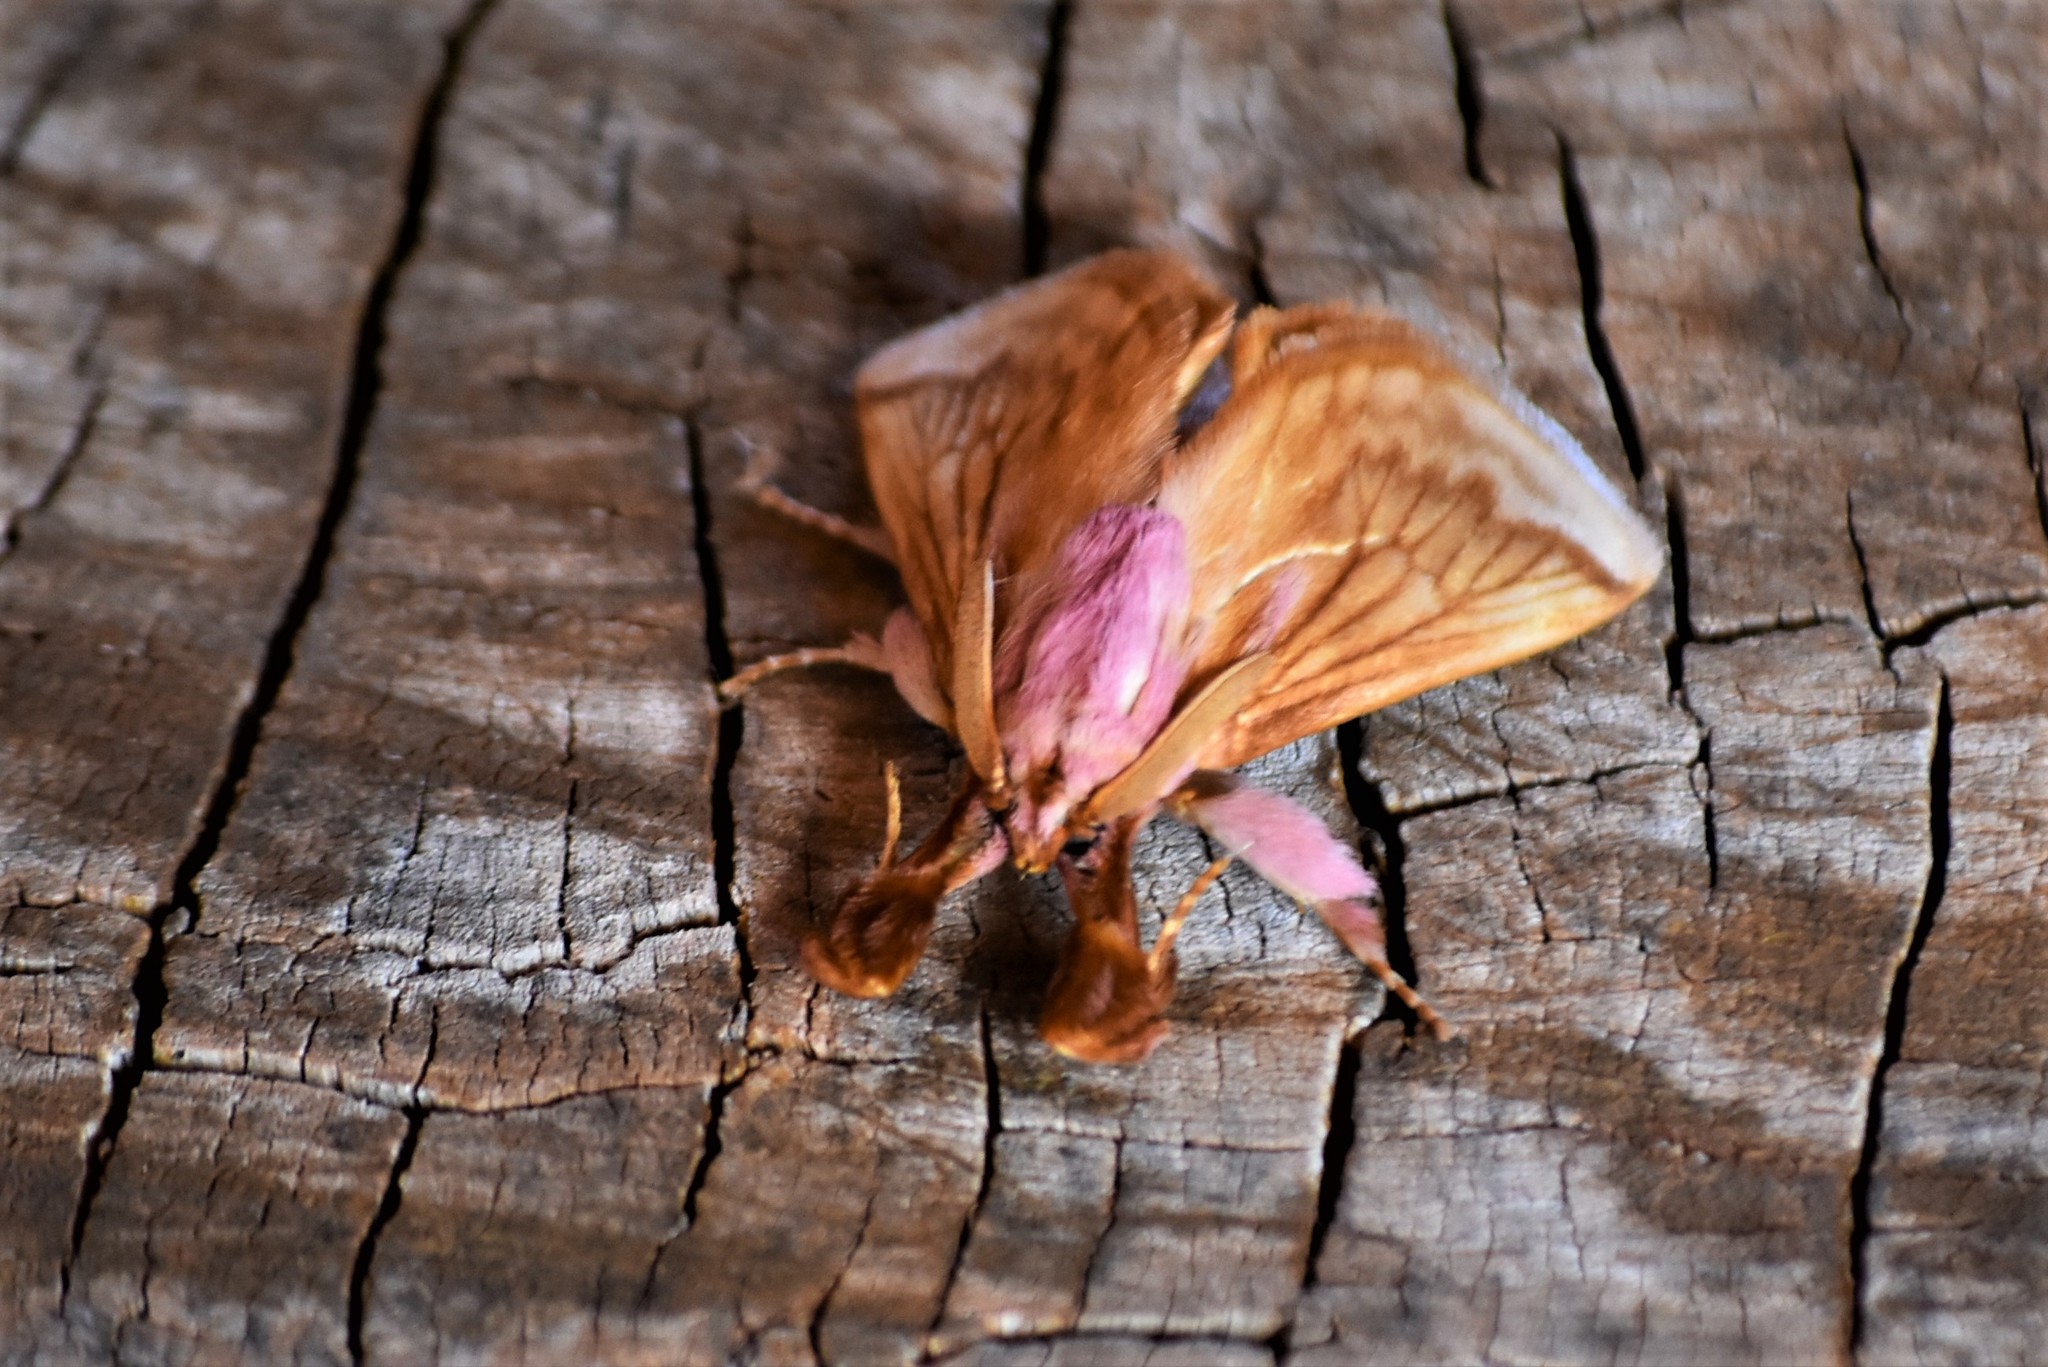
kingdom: Animalia
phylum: Arthropoda
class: Insecta
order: Lepidoptera
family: Limacodidae
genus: Perola
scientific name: Perola villosipes
